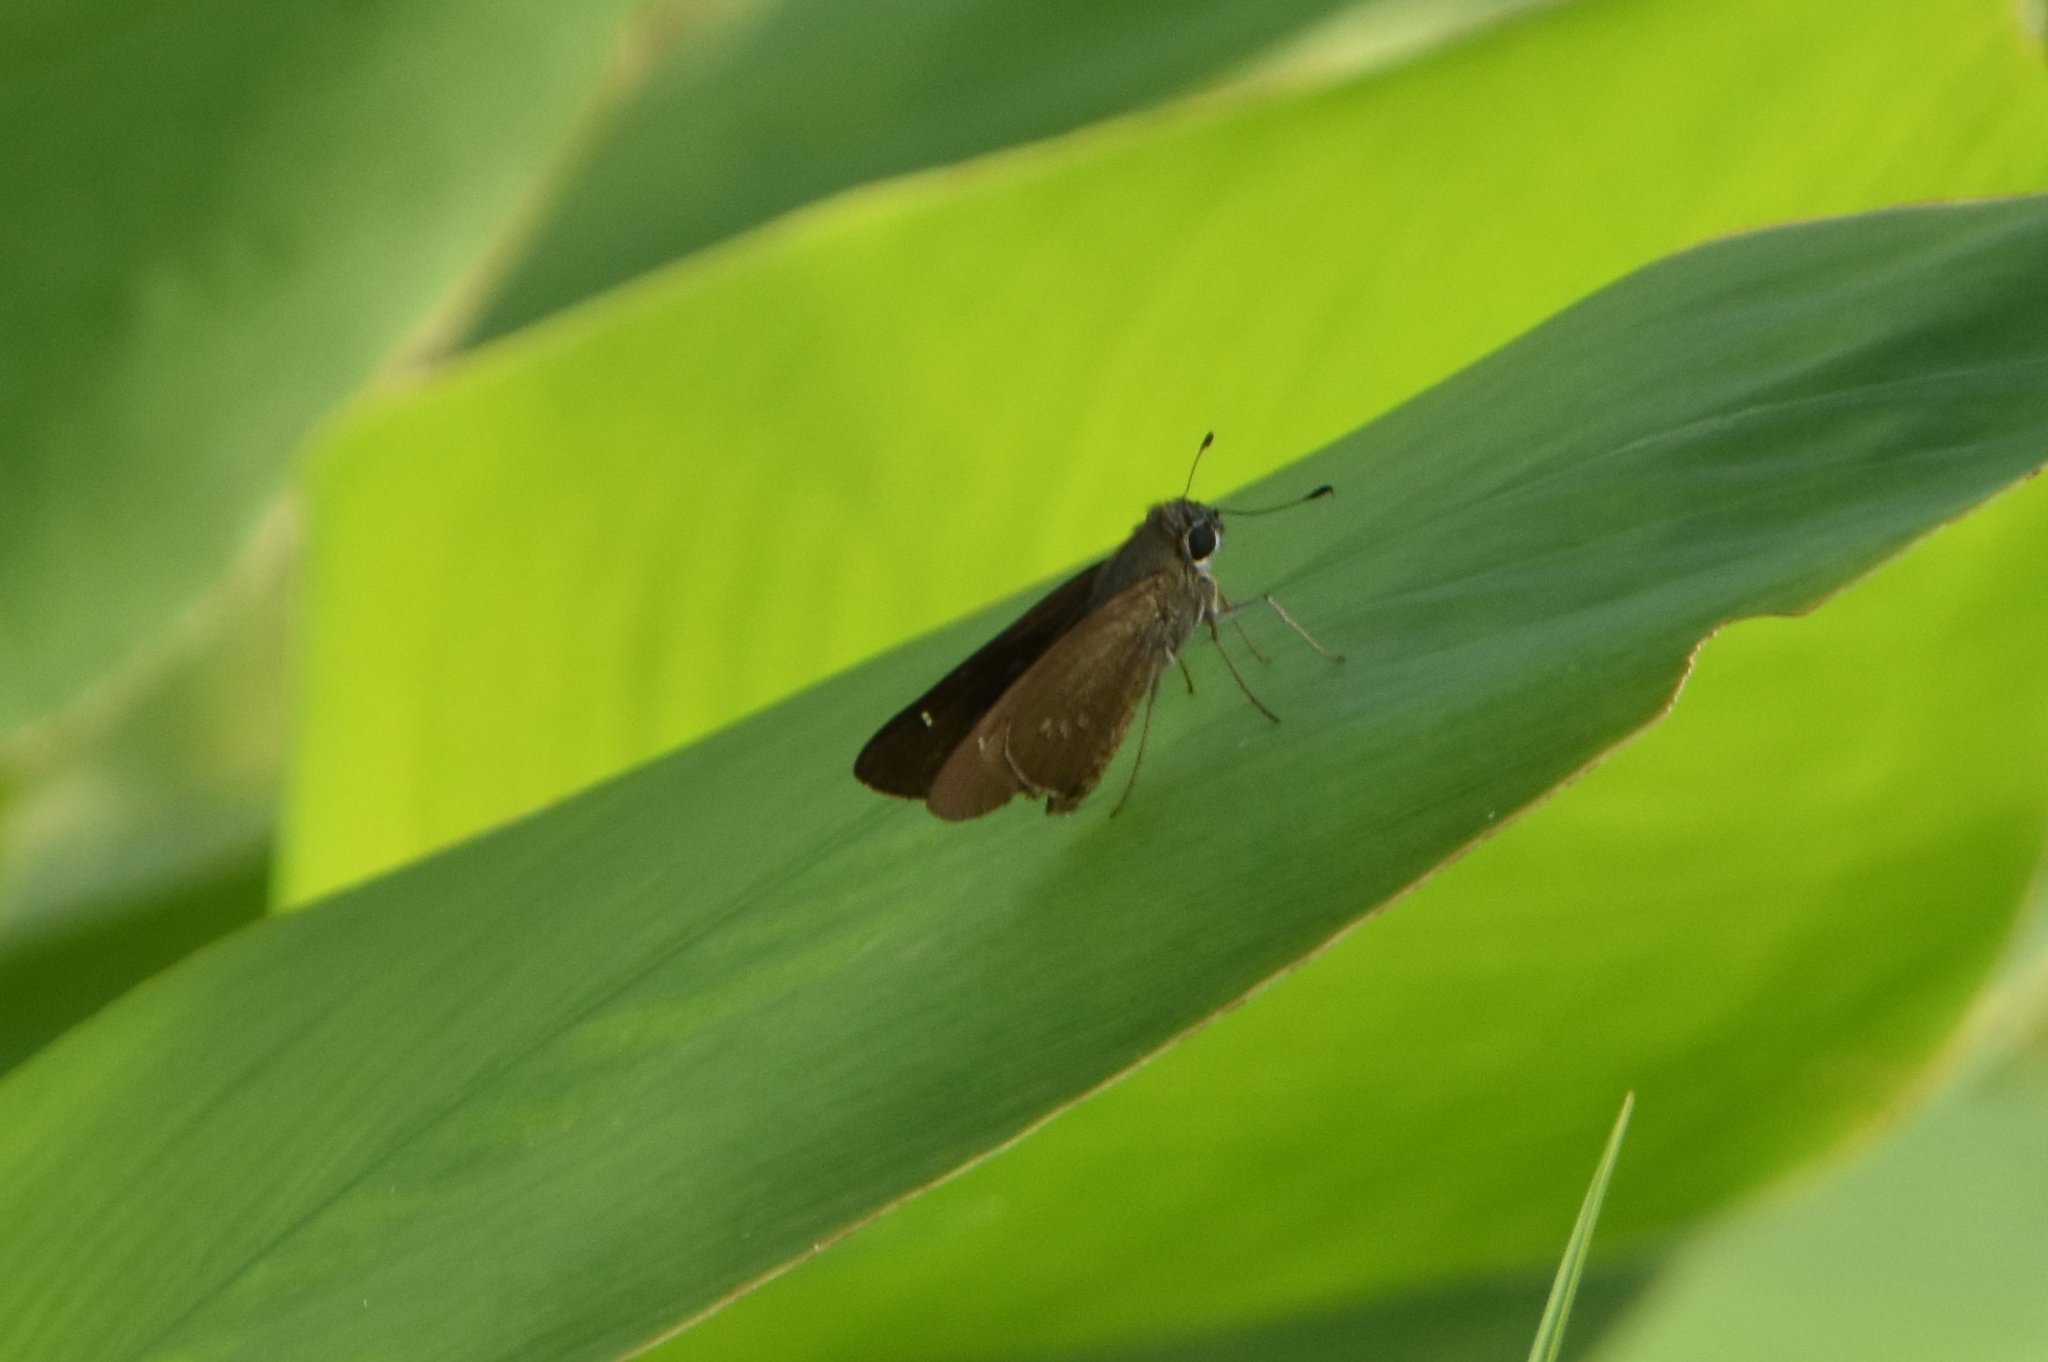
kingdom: Animalia
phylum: Arthropoda
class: Insecta
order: Lepidoptera
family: Hesperiidae
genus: Calpodes
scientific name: Calpodes ethlius
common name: Brazilian skipper
